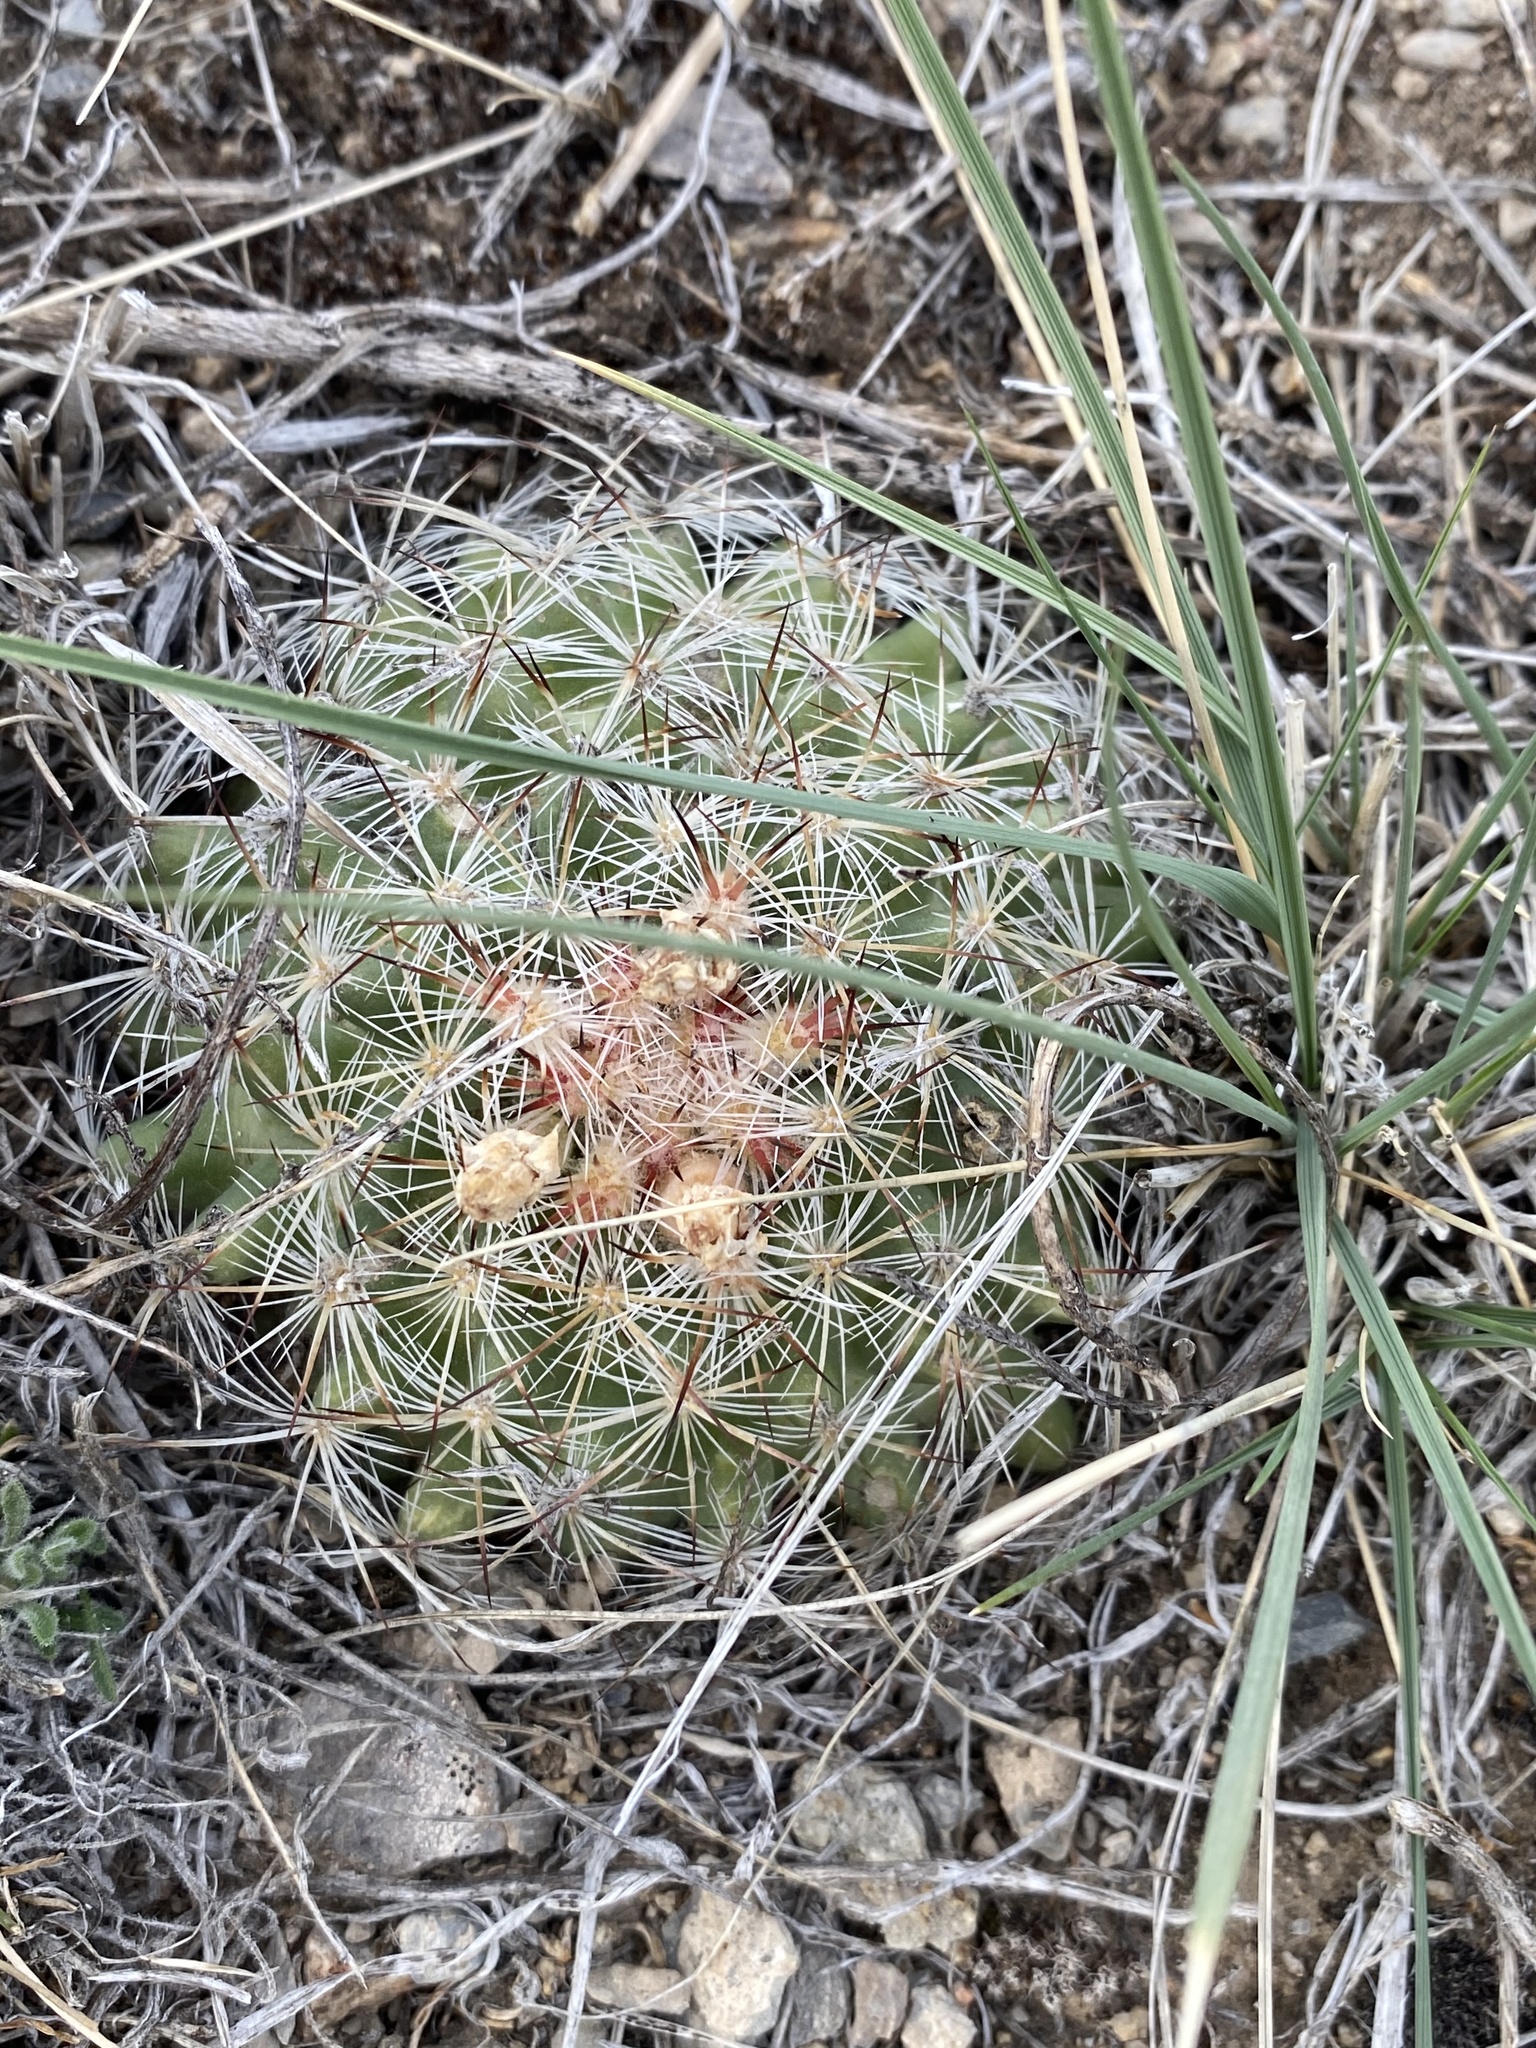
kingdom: Plantae
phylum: Tracheophyta
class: Magnoliopsida
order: Caryophyllales
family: Cactaceae
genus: Pediocactus
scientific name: Pediocactus simpsonii
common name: Simpson's hedgehog cactus
